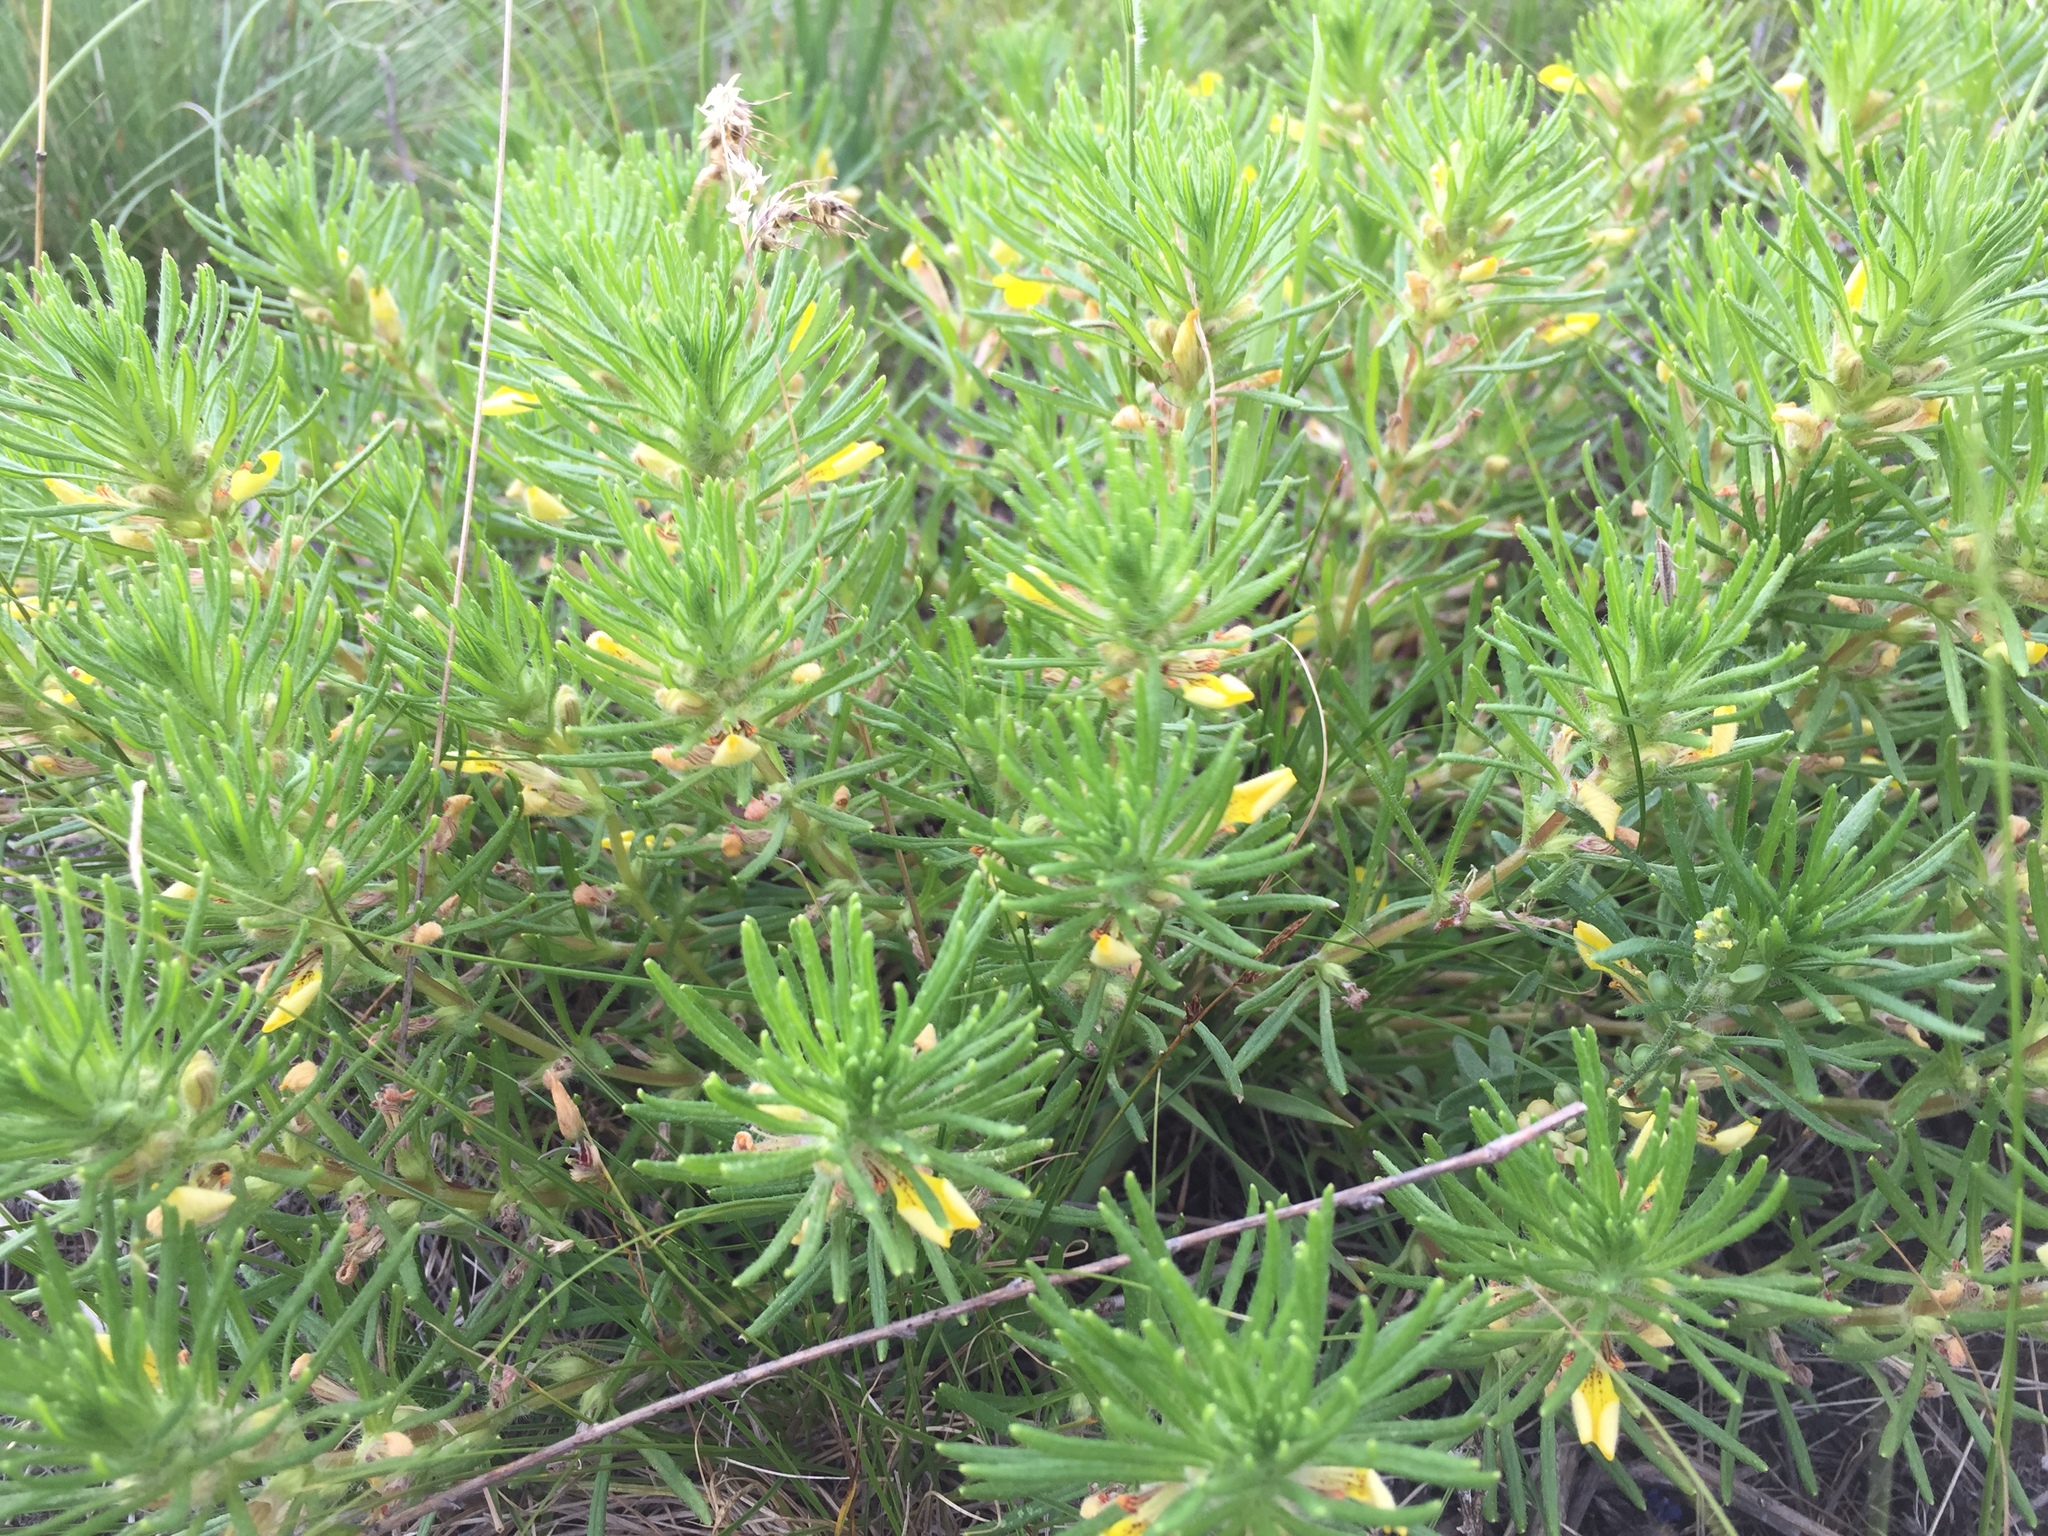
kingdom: Plantae
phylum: Tracheophyta
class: Magnoliopsida
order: Lamiales
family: Lamiaceae
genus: Ajuga
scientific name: Ajuga chamaepitys
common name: Ground-pine
